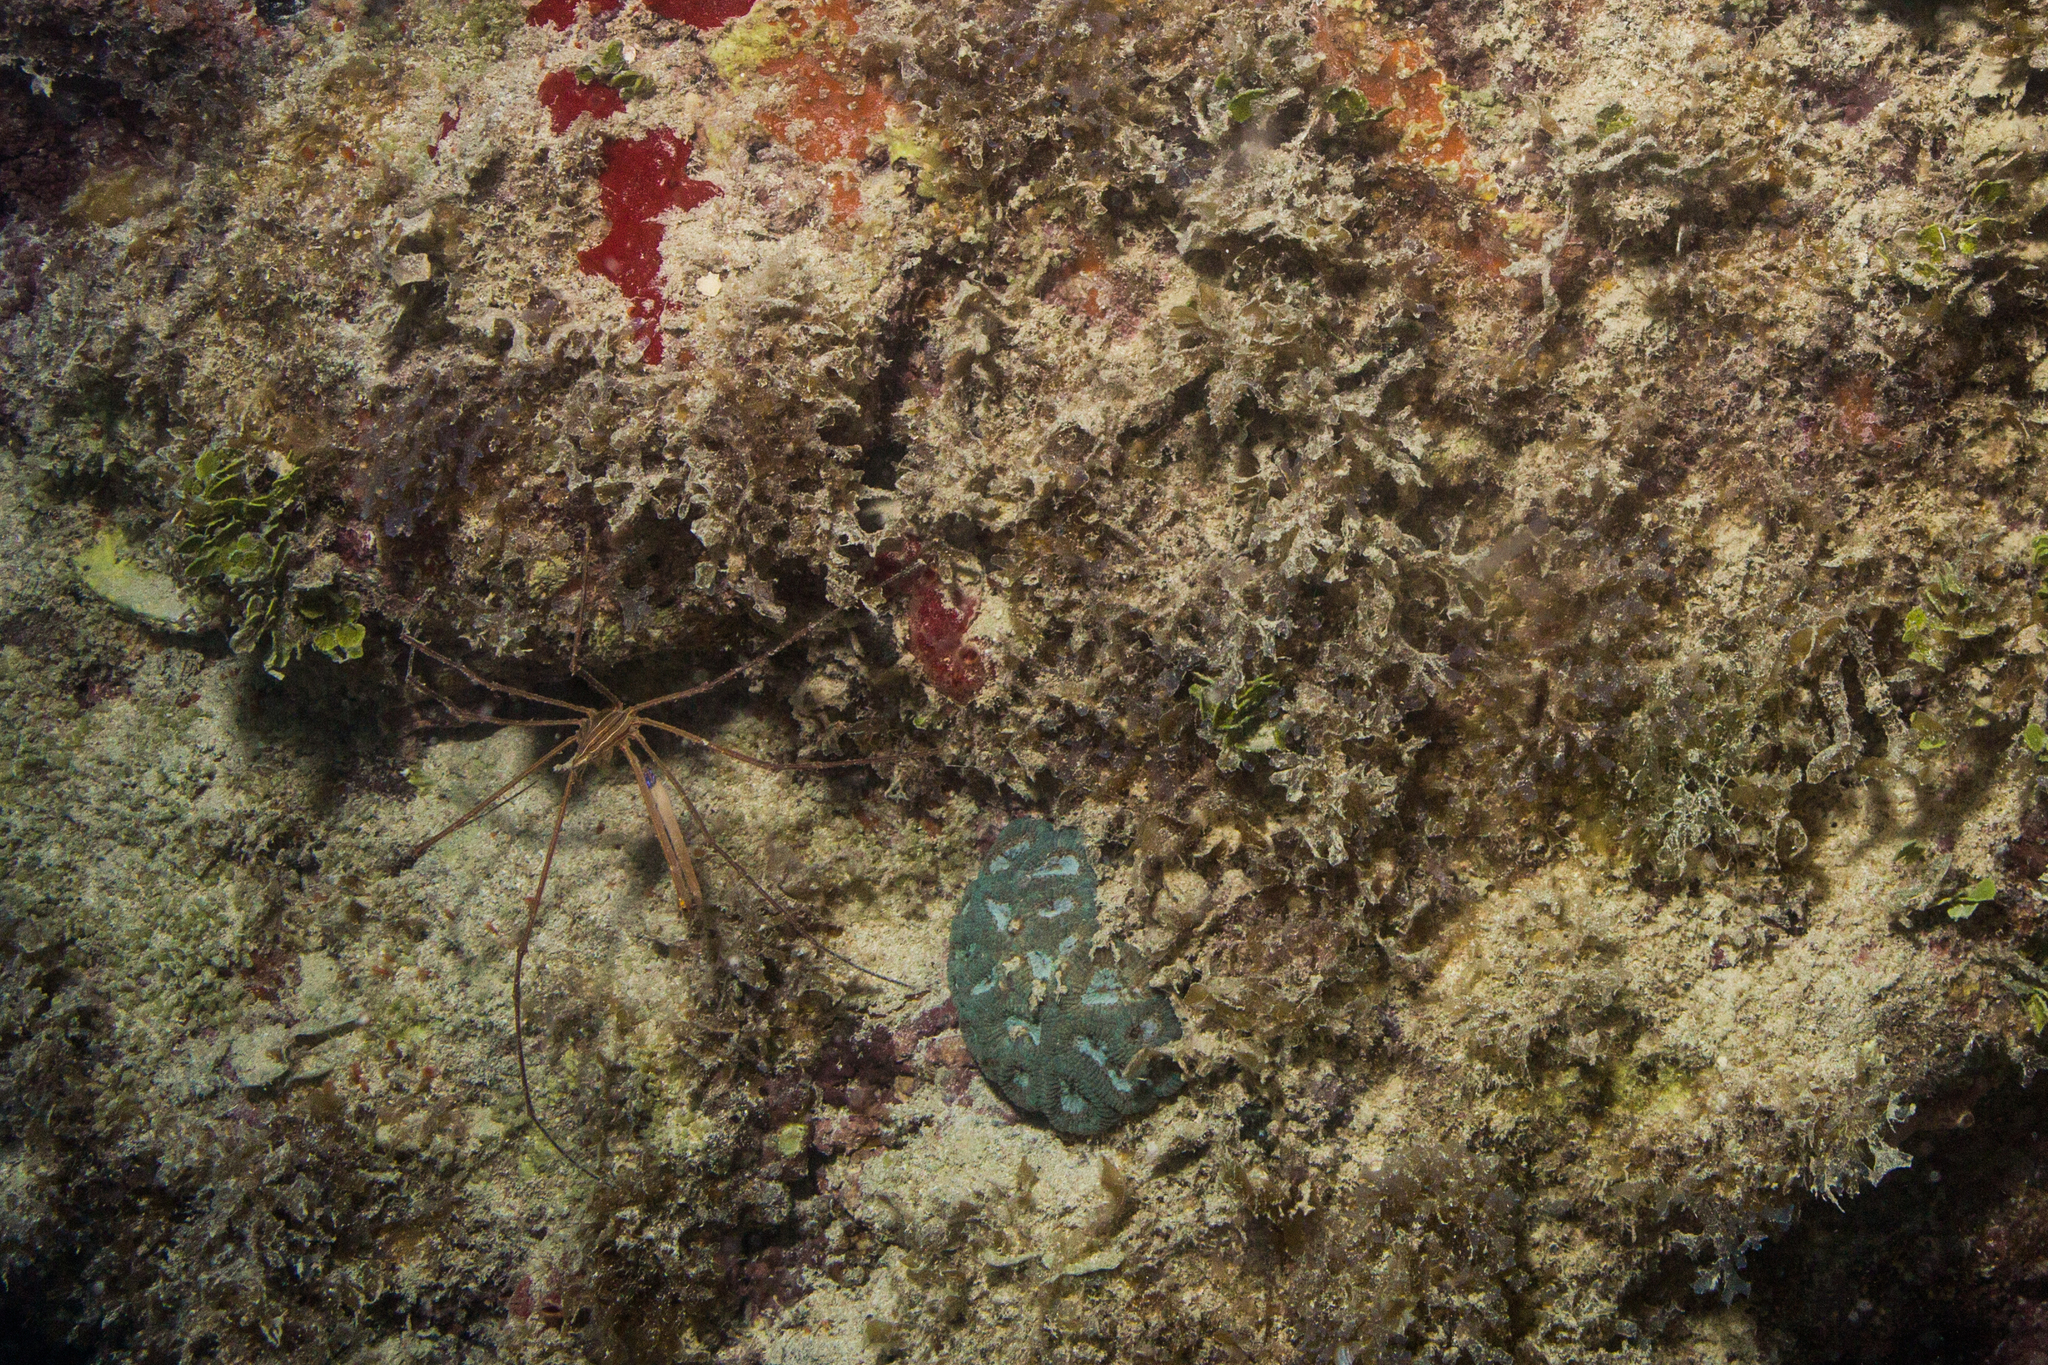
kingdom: Animalia
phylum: Arthropoda
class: Malacostraca
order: Decapoda
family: Inachoididae
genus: Stenorhynchus
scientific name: Stenorhynchus seticornis
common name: Arrow crab
